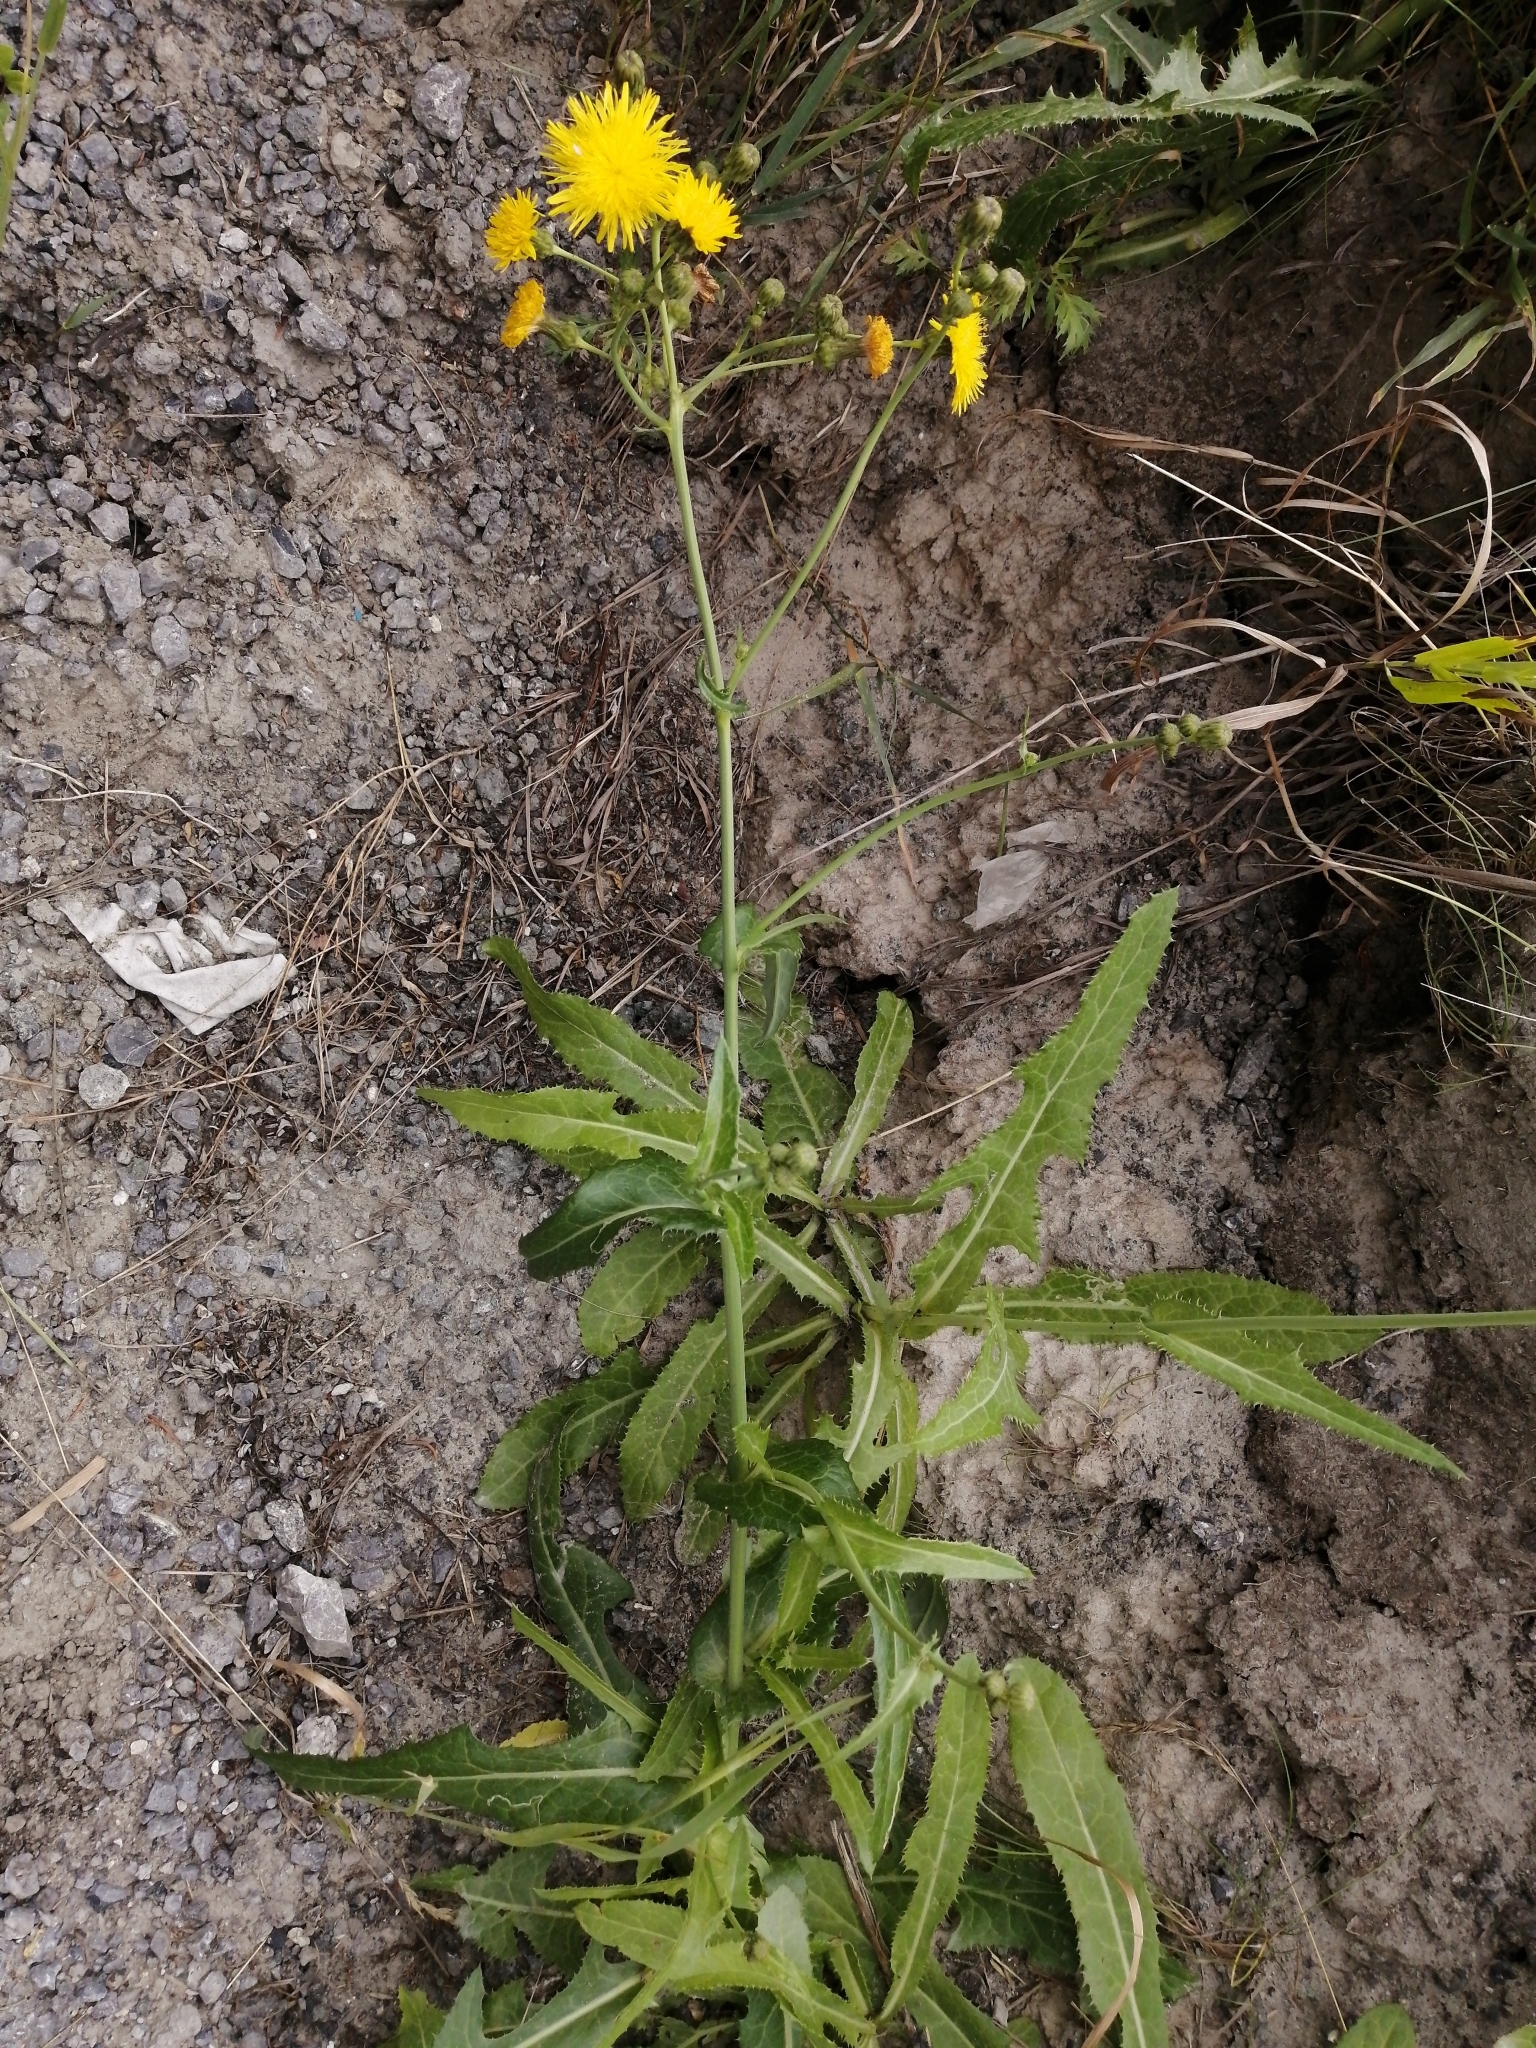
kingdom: Plantae
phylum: Tracheophyta
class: Magnoliopsida
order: Asterales
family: Asteraceae
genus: Sonchus
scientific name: Sonchus arvensis
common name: Perennial sow-thistle
